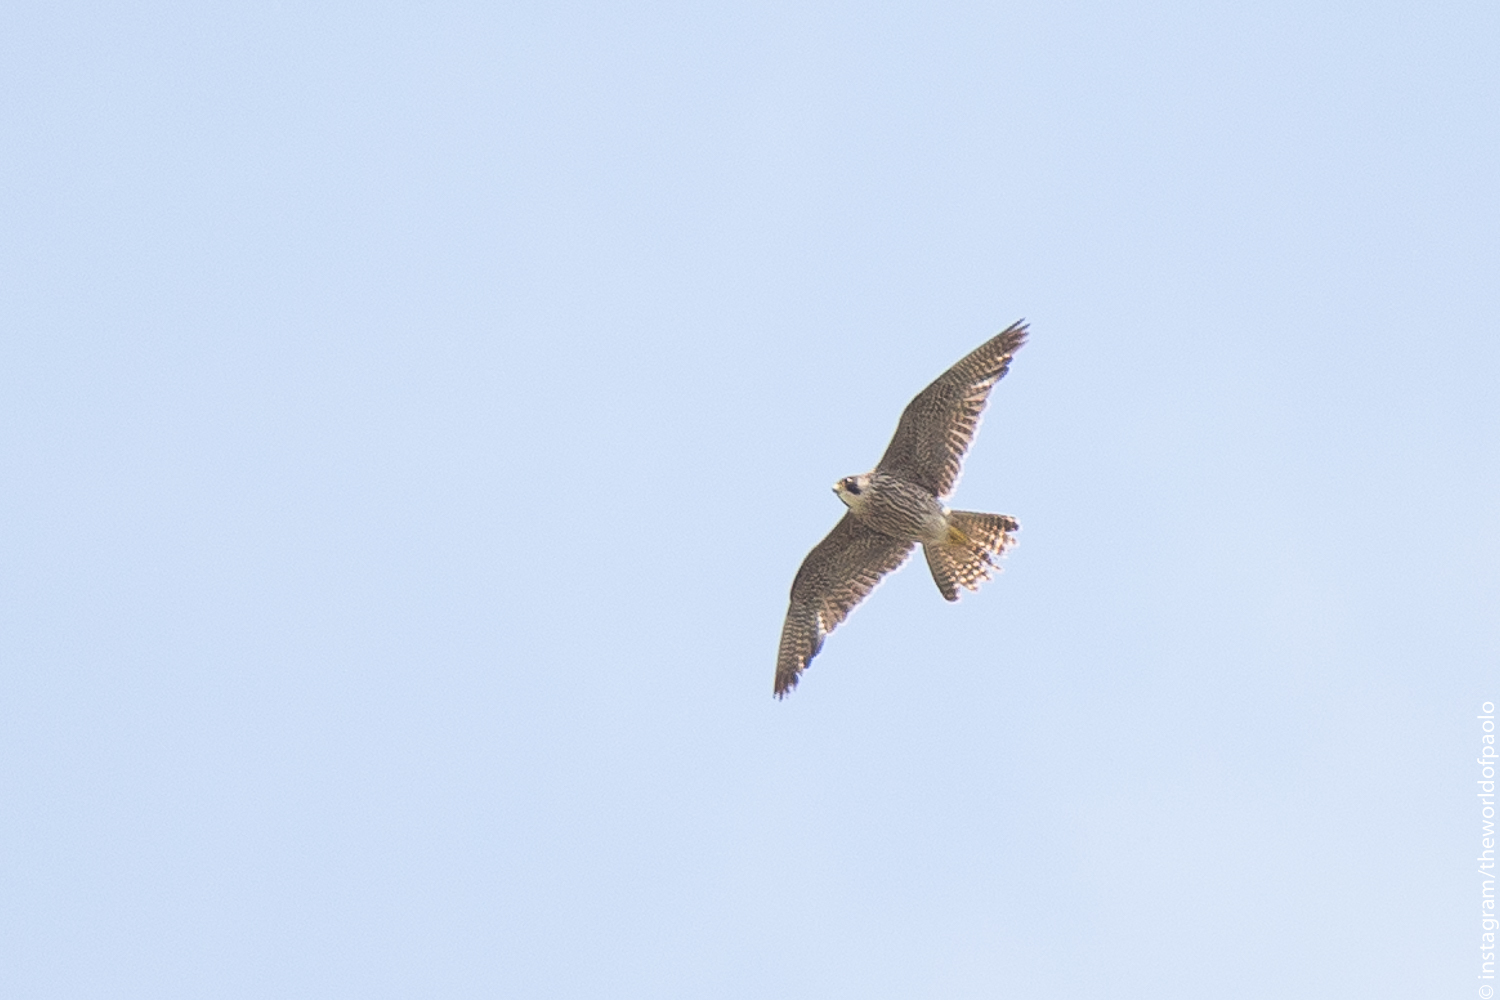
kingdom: Animalia
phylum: Chordata
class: Aves
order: Falconiformes
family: Falconidae
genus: Falco
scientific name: Falco peregrinus
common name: Peregrine falcon
